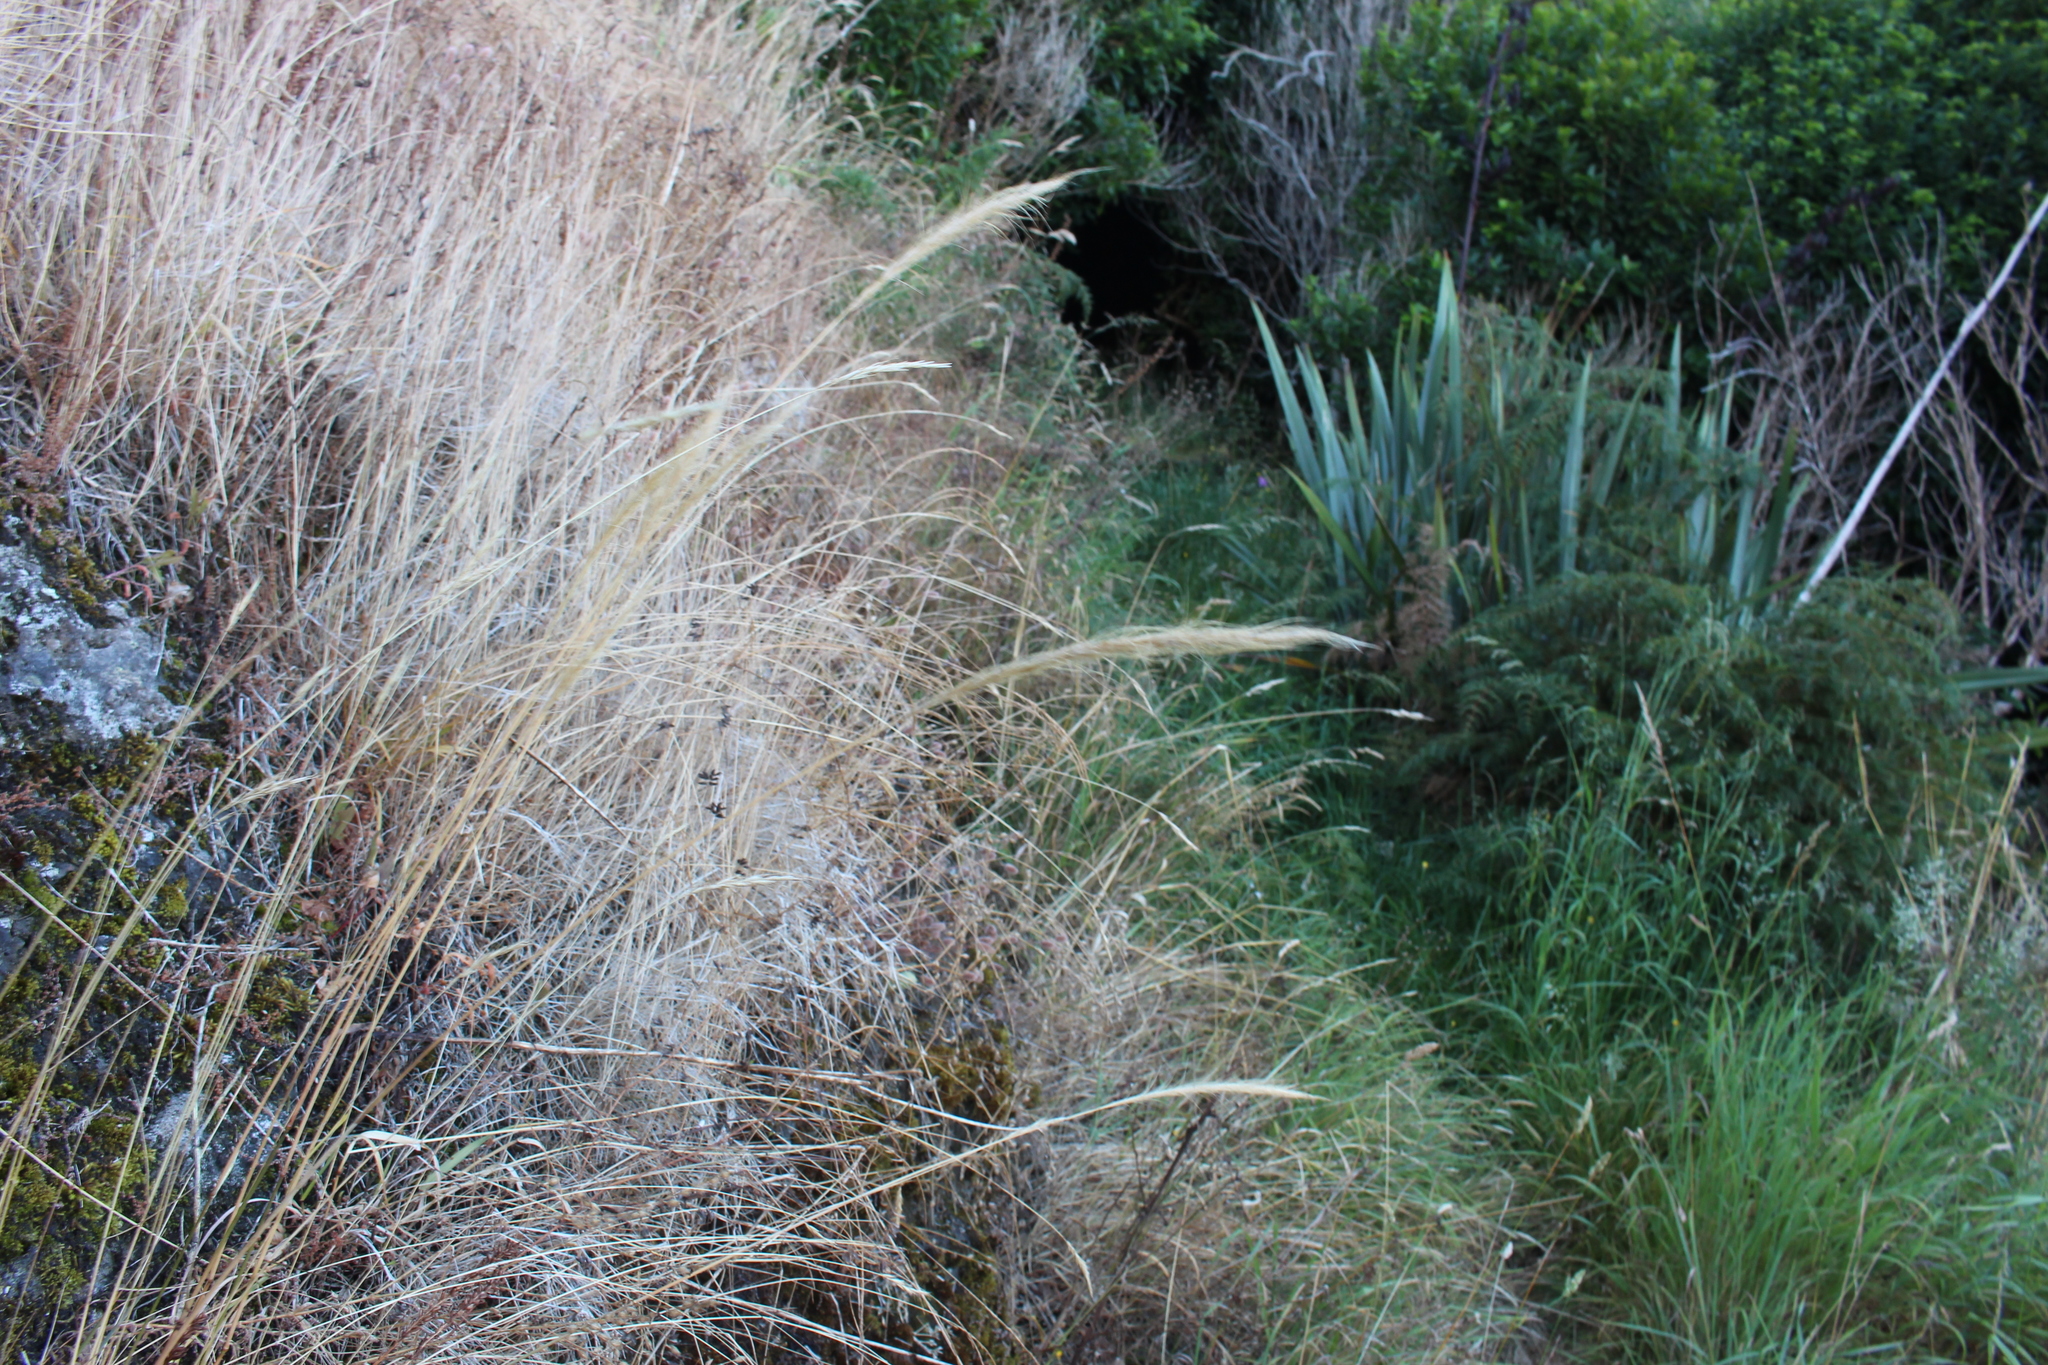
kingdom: Plantae
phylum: Tracheophyta
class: Liliopsida
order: Poales
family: Poaceae
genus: Dichelachne
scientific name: Dichelachne crinita
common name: Clovenfoot plumegrass
